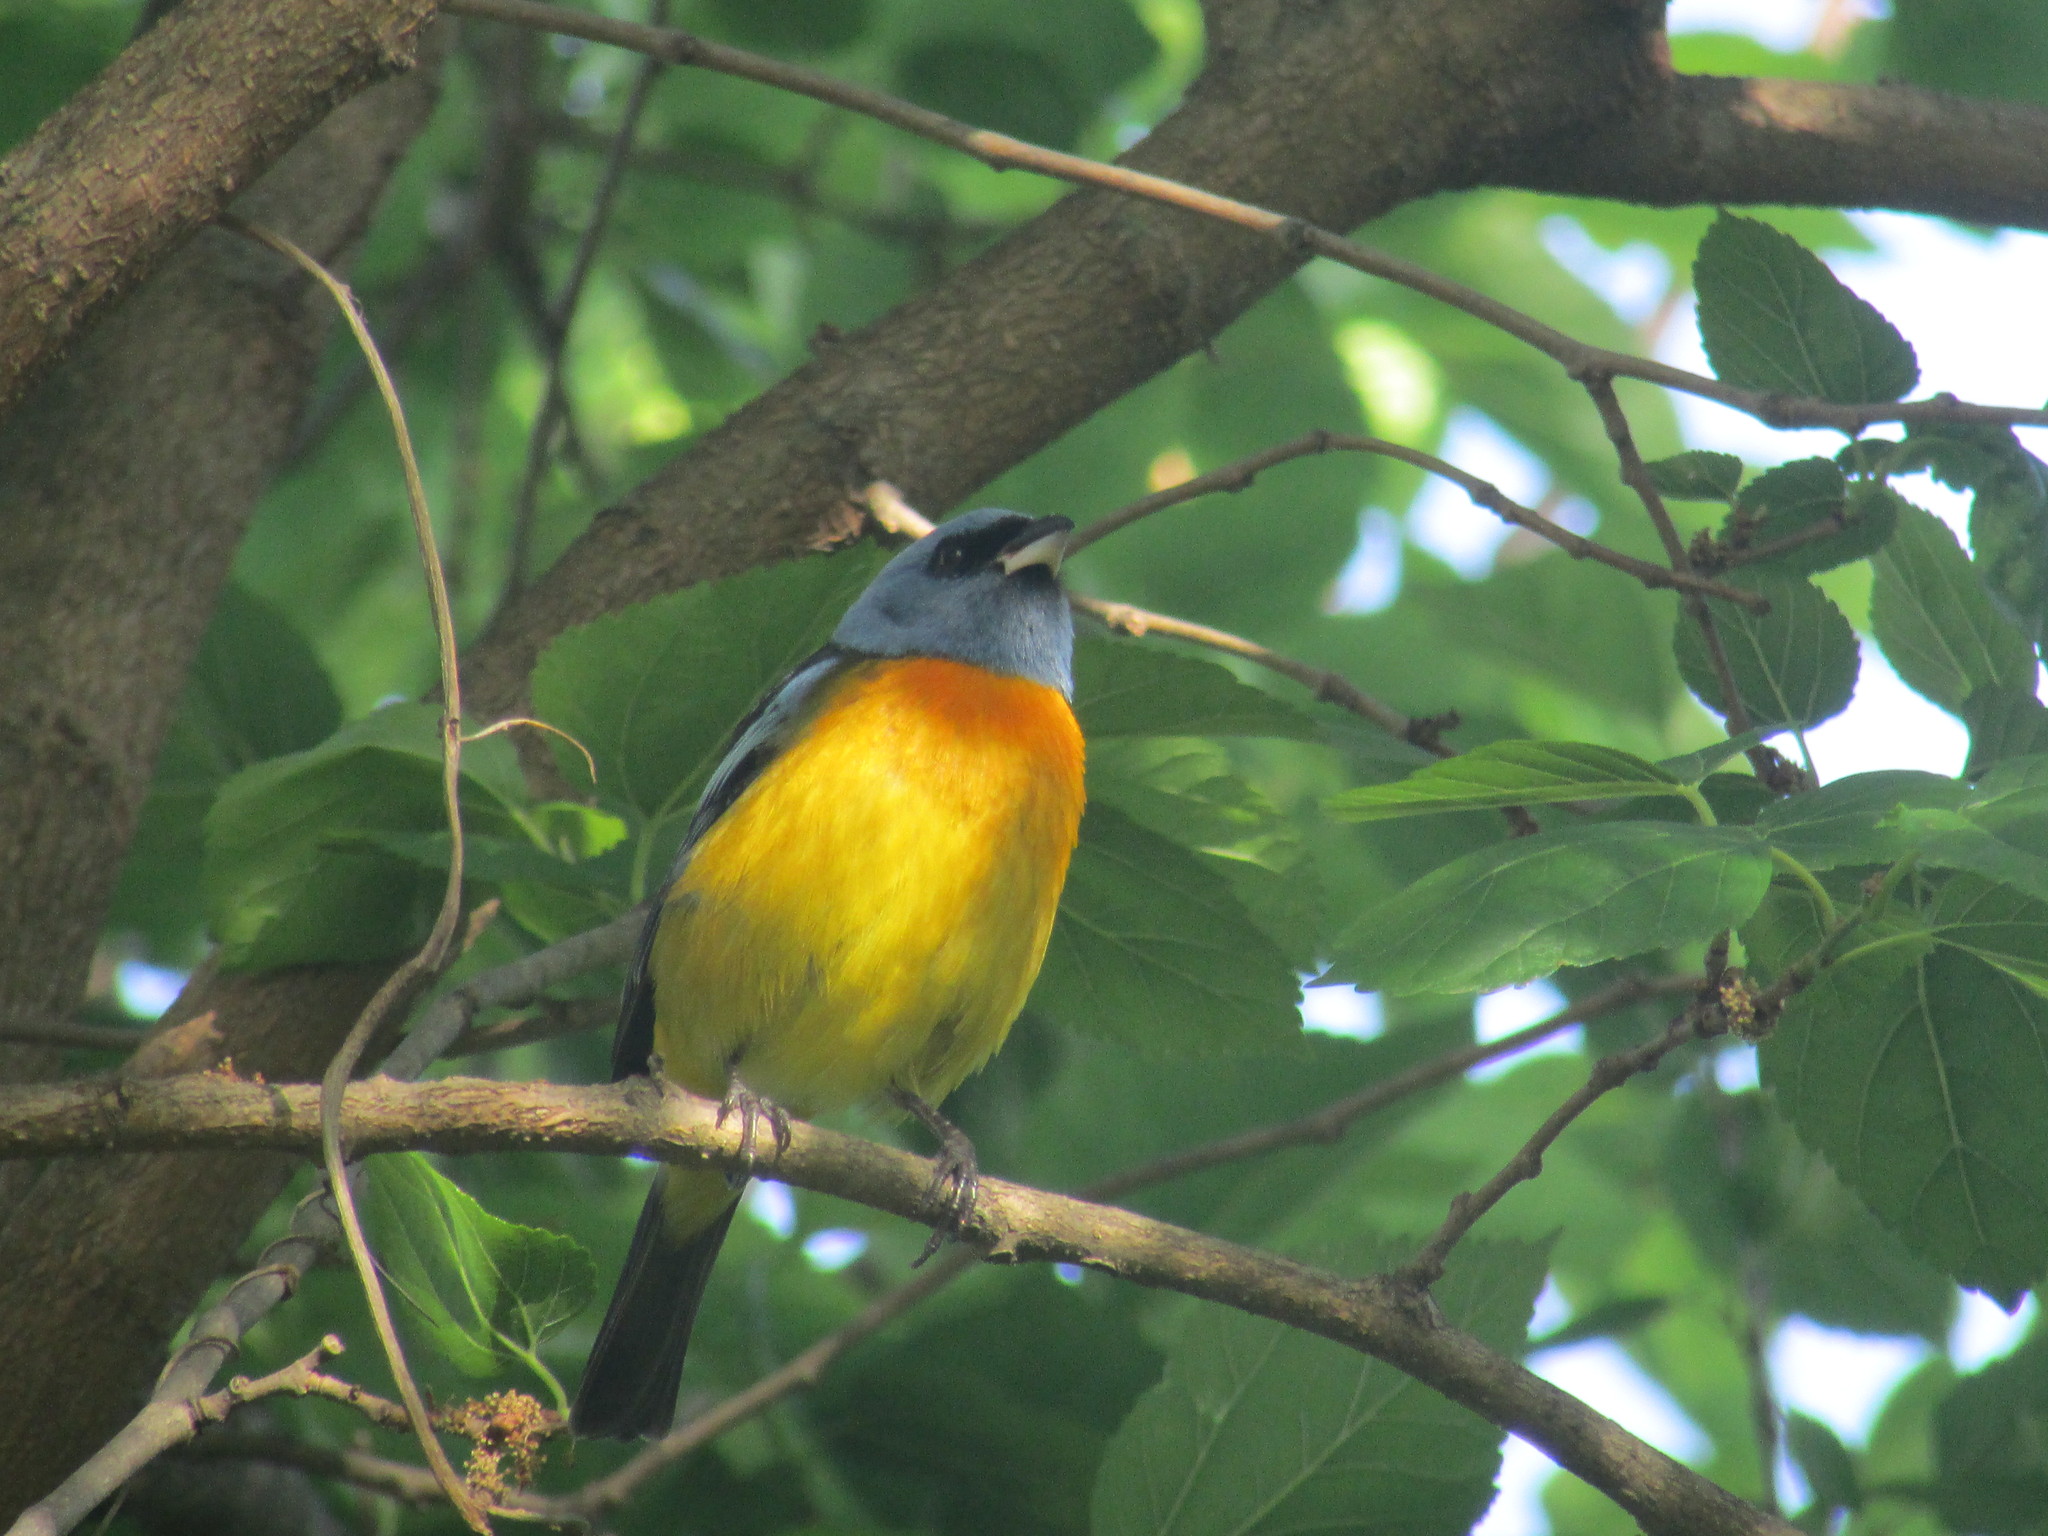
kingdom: Animalia
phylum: Chordata
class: Aves
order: Passeriformes
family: Thraupidae
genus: Rauenia
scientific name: Rauenia bonariensis
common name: Blue-and-yellow tanager
